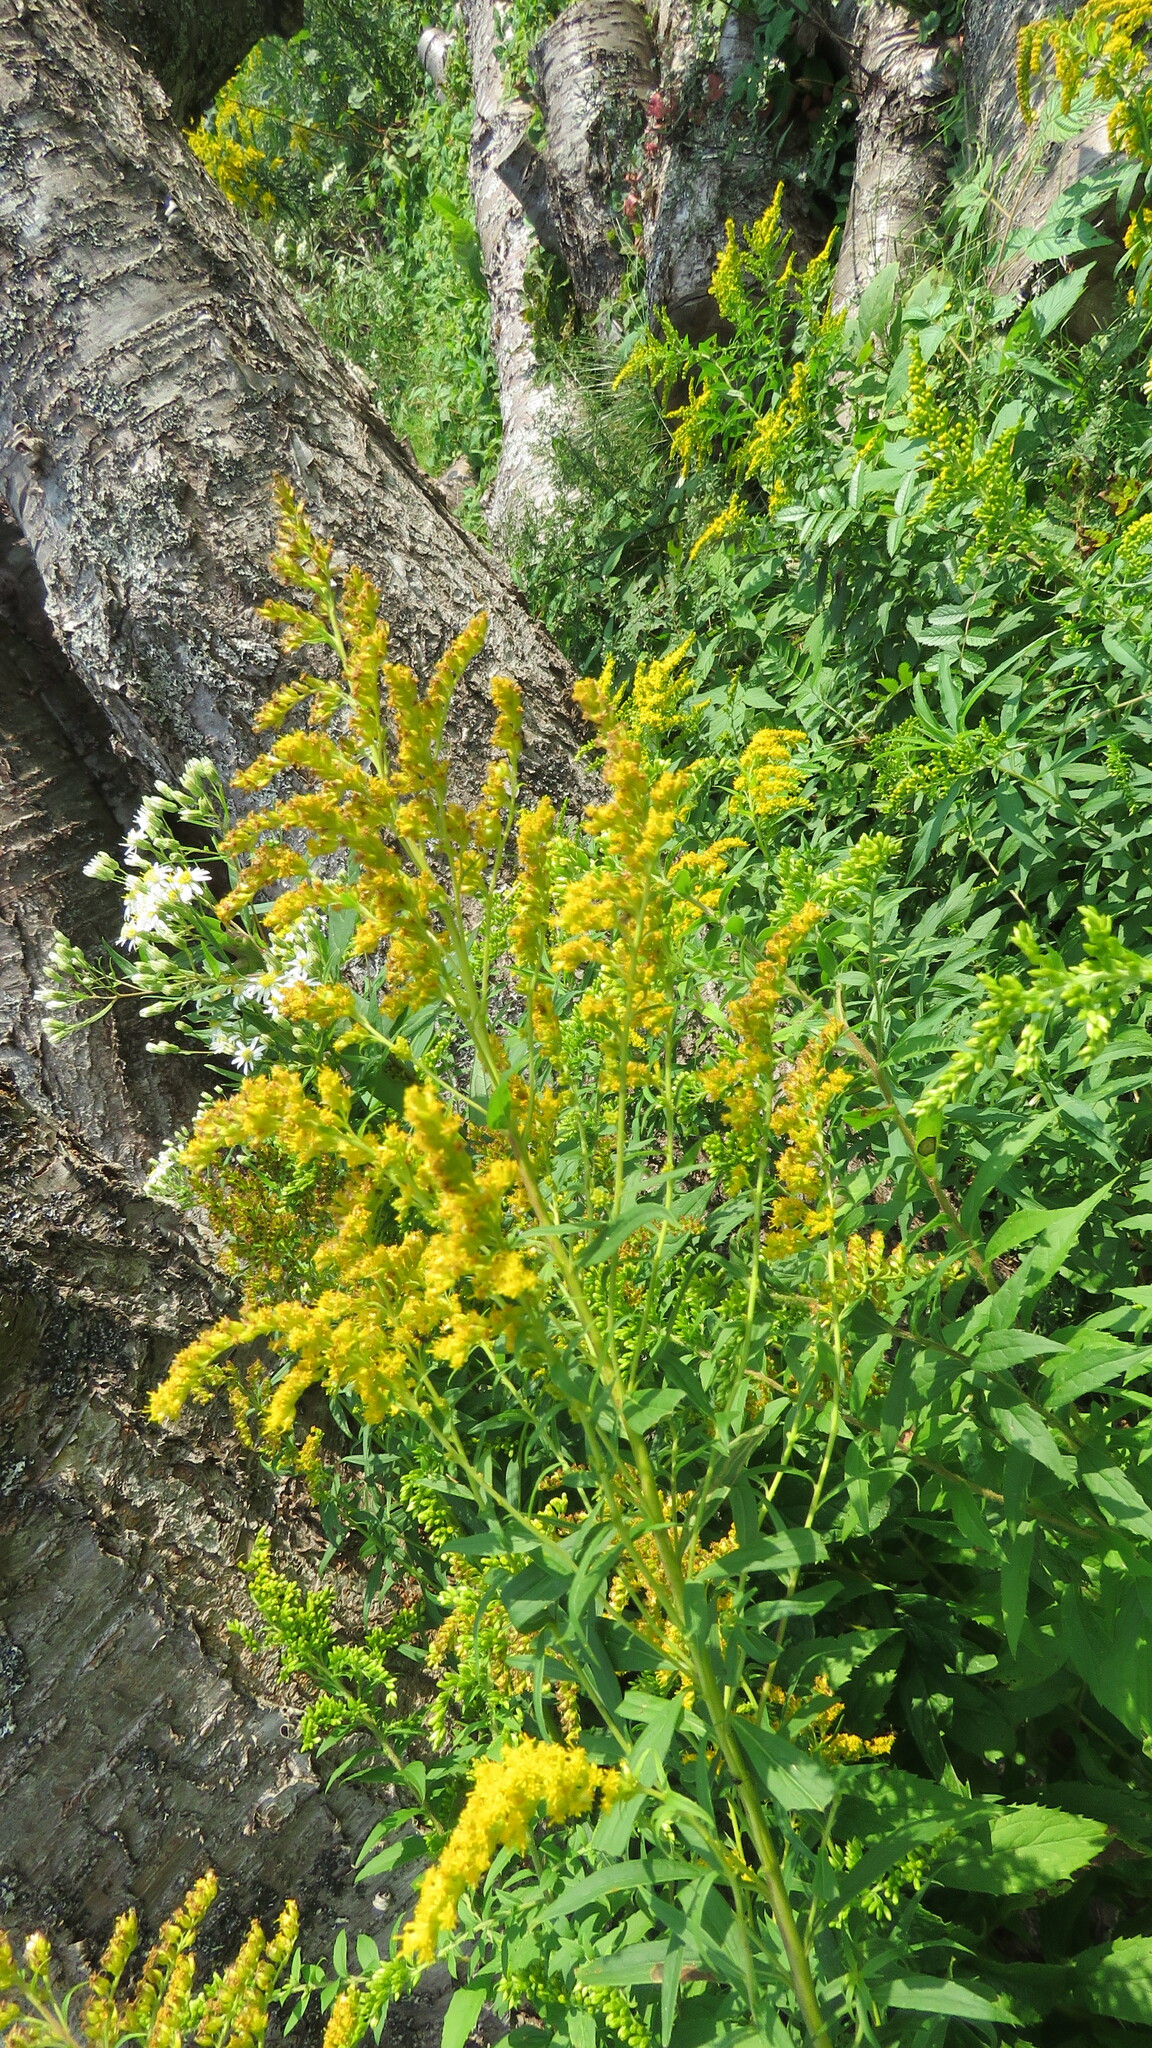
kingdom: Plantae
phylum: Tracheophyta
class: Magnoliopsida
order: Asterales
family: Asteraceae
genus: Solidago
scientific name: Solidago canadensis
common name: Canada goldenrod
